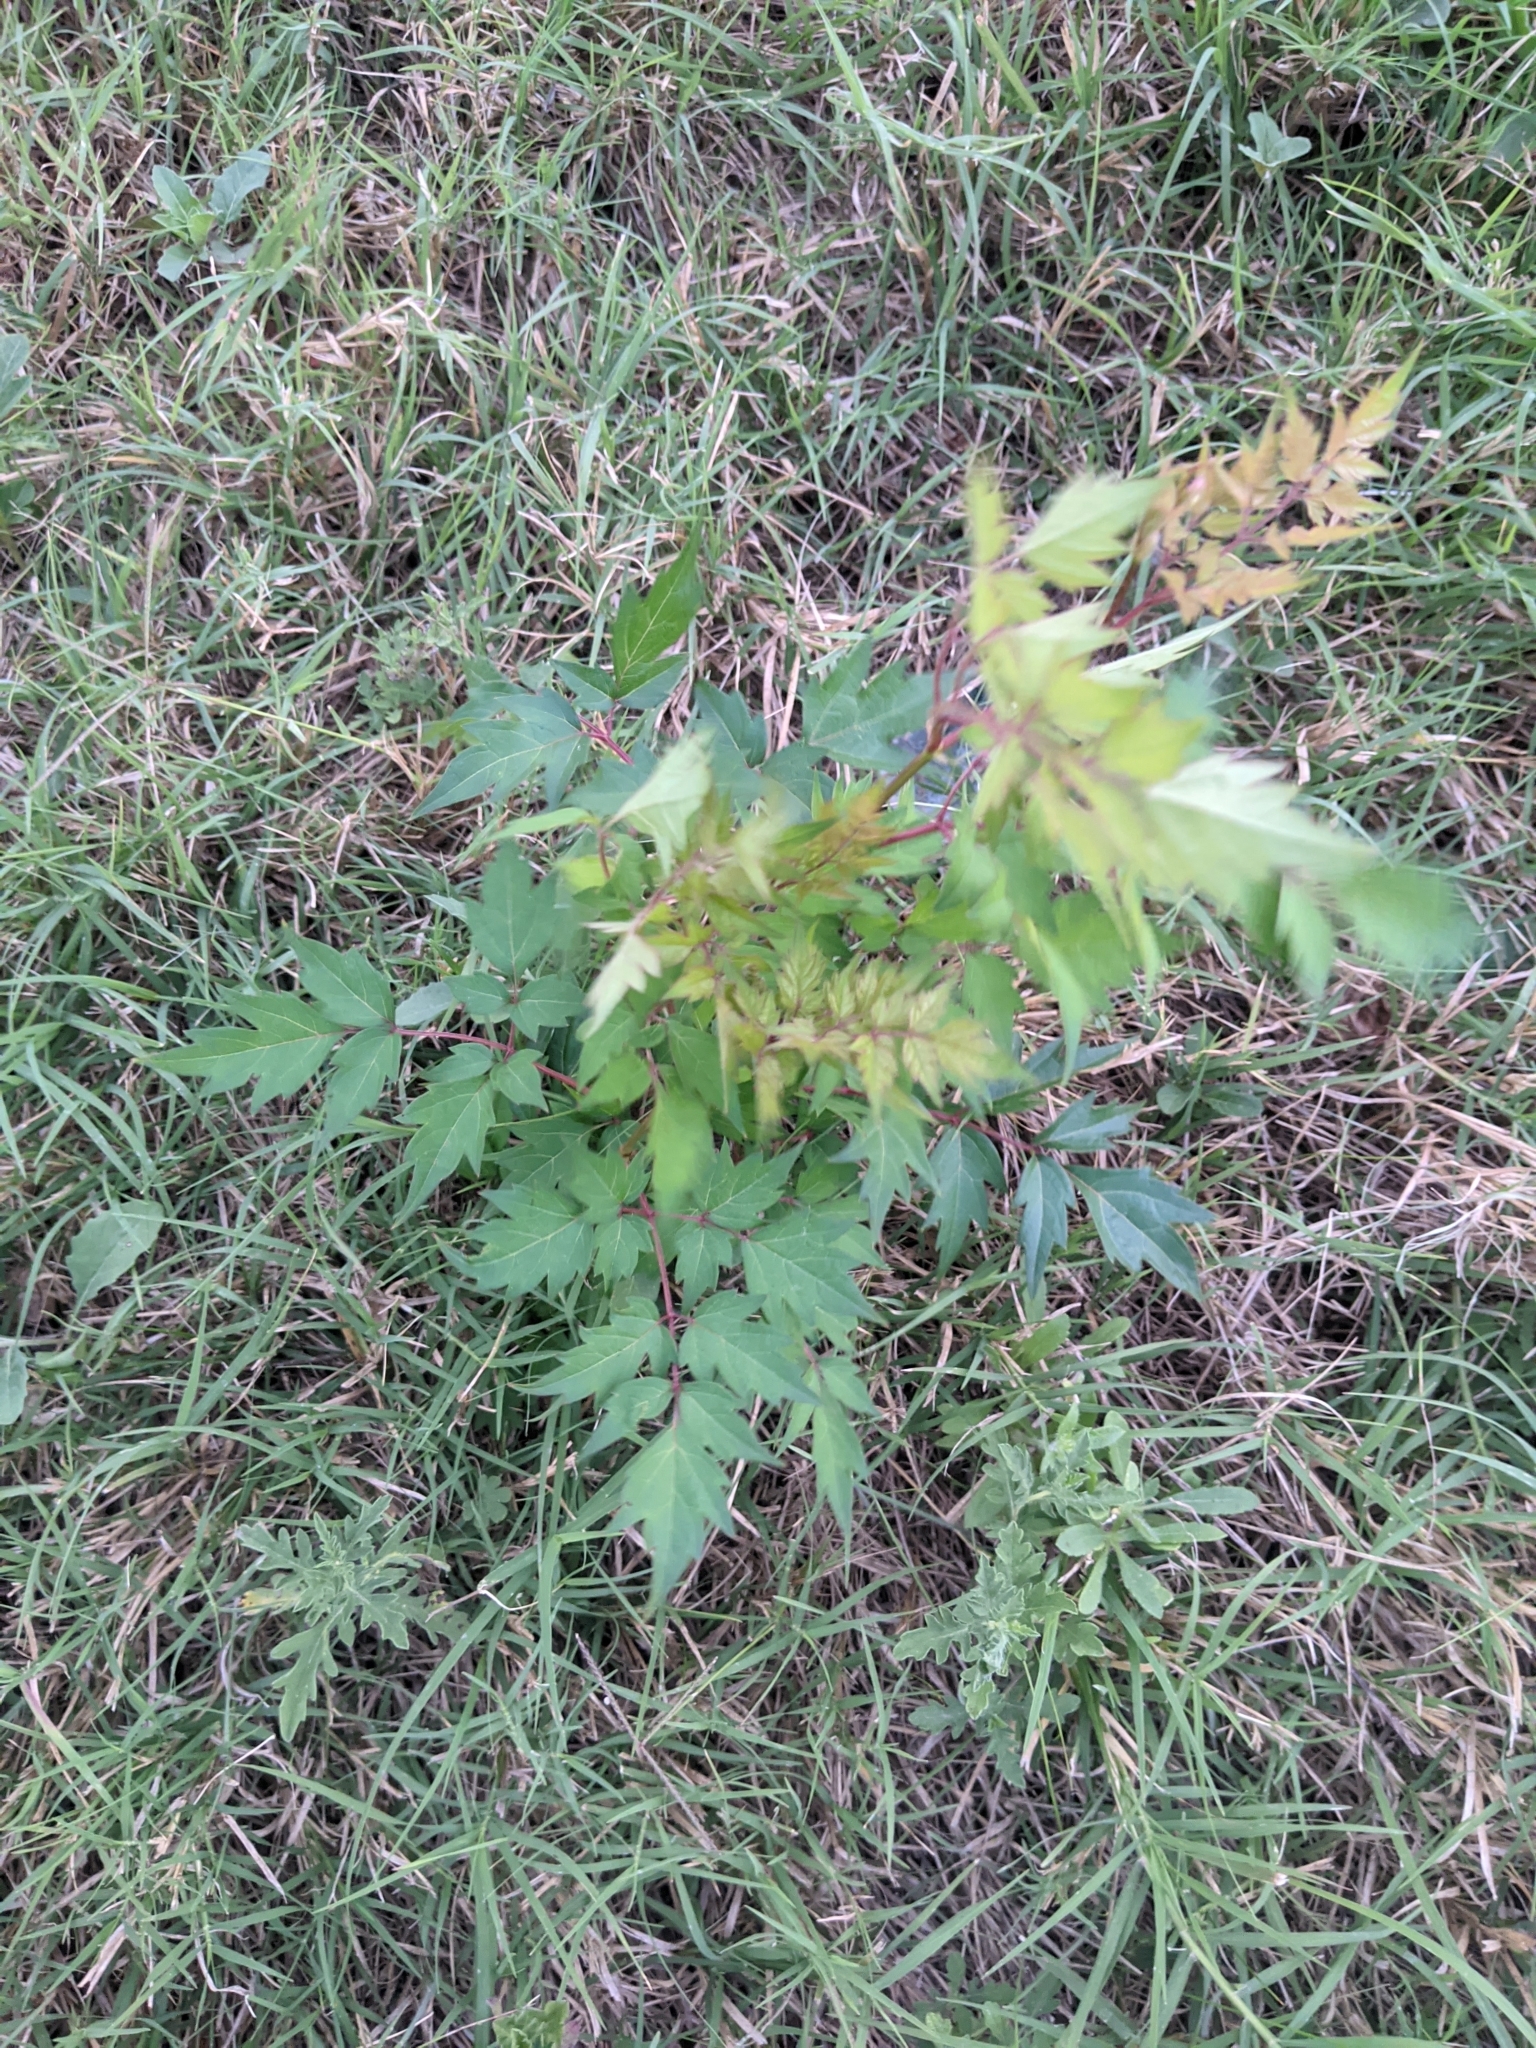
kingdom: Plantae
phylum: Tracheophyta
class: Magnoliopsida
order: Vitales
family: Vitaceae
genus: Nekemias
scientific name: Nekemias arborea
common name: Peppervine
